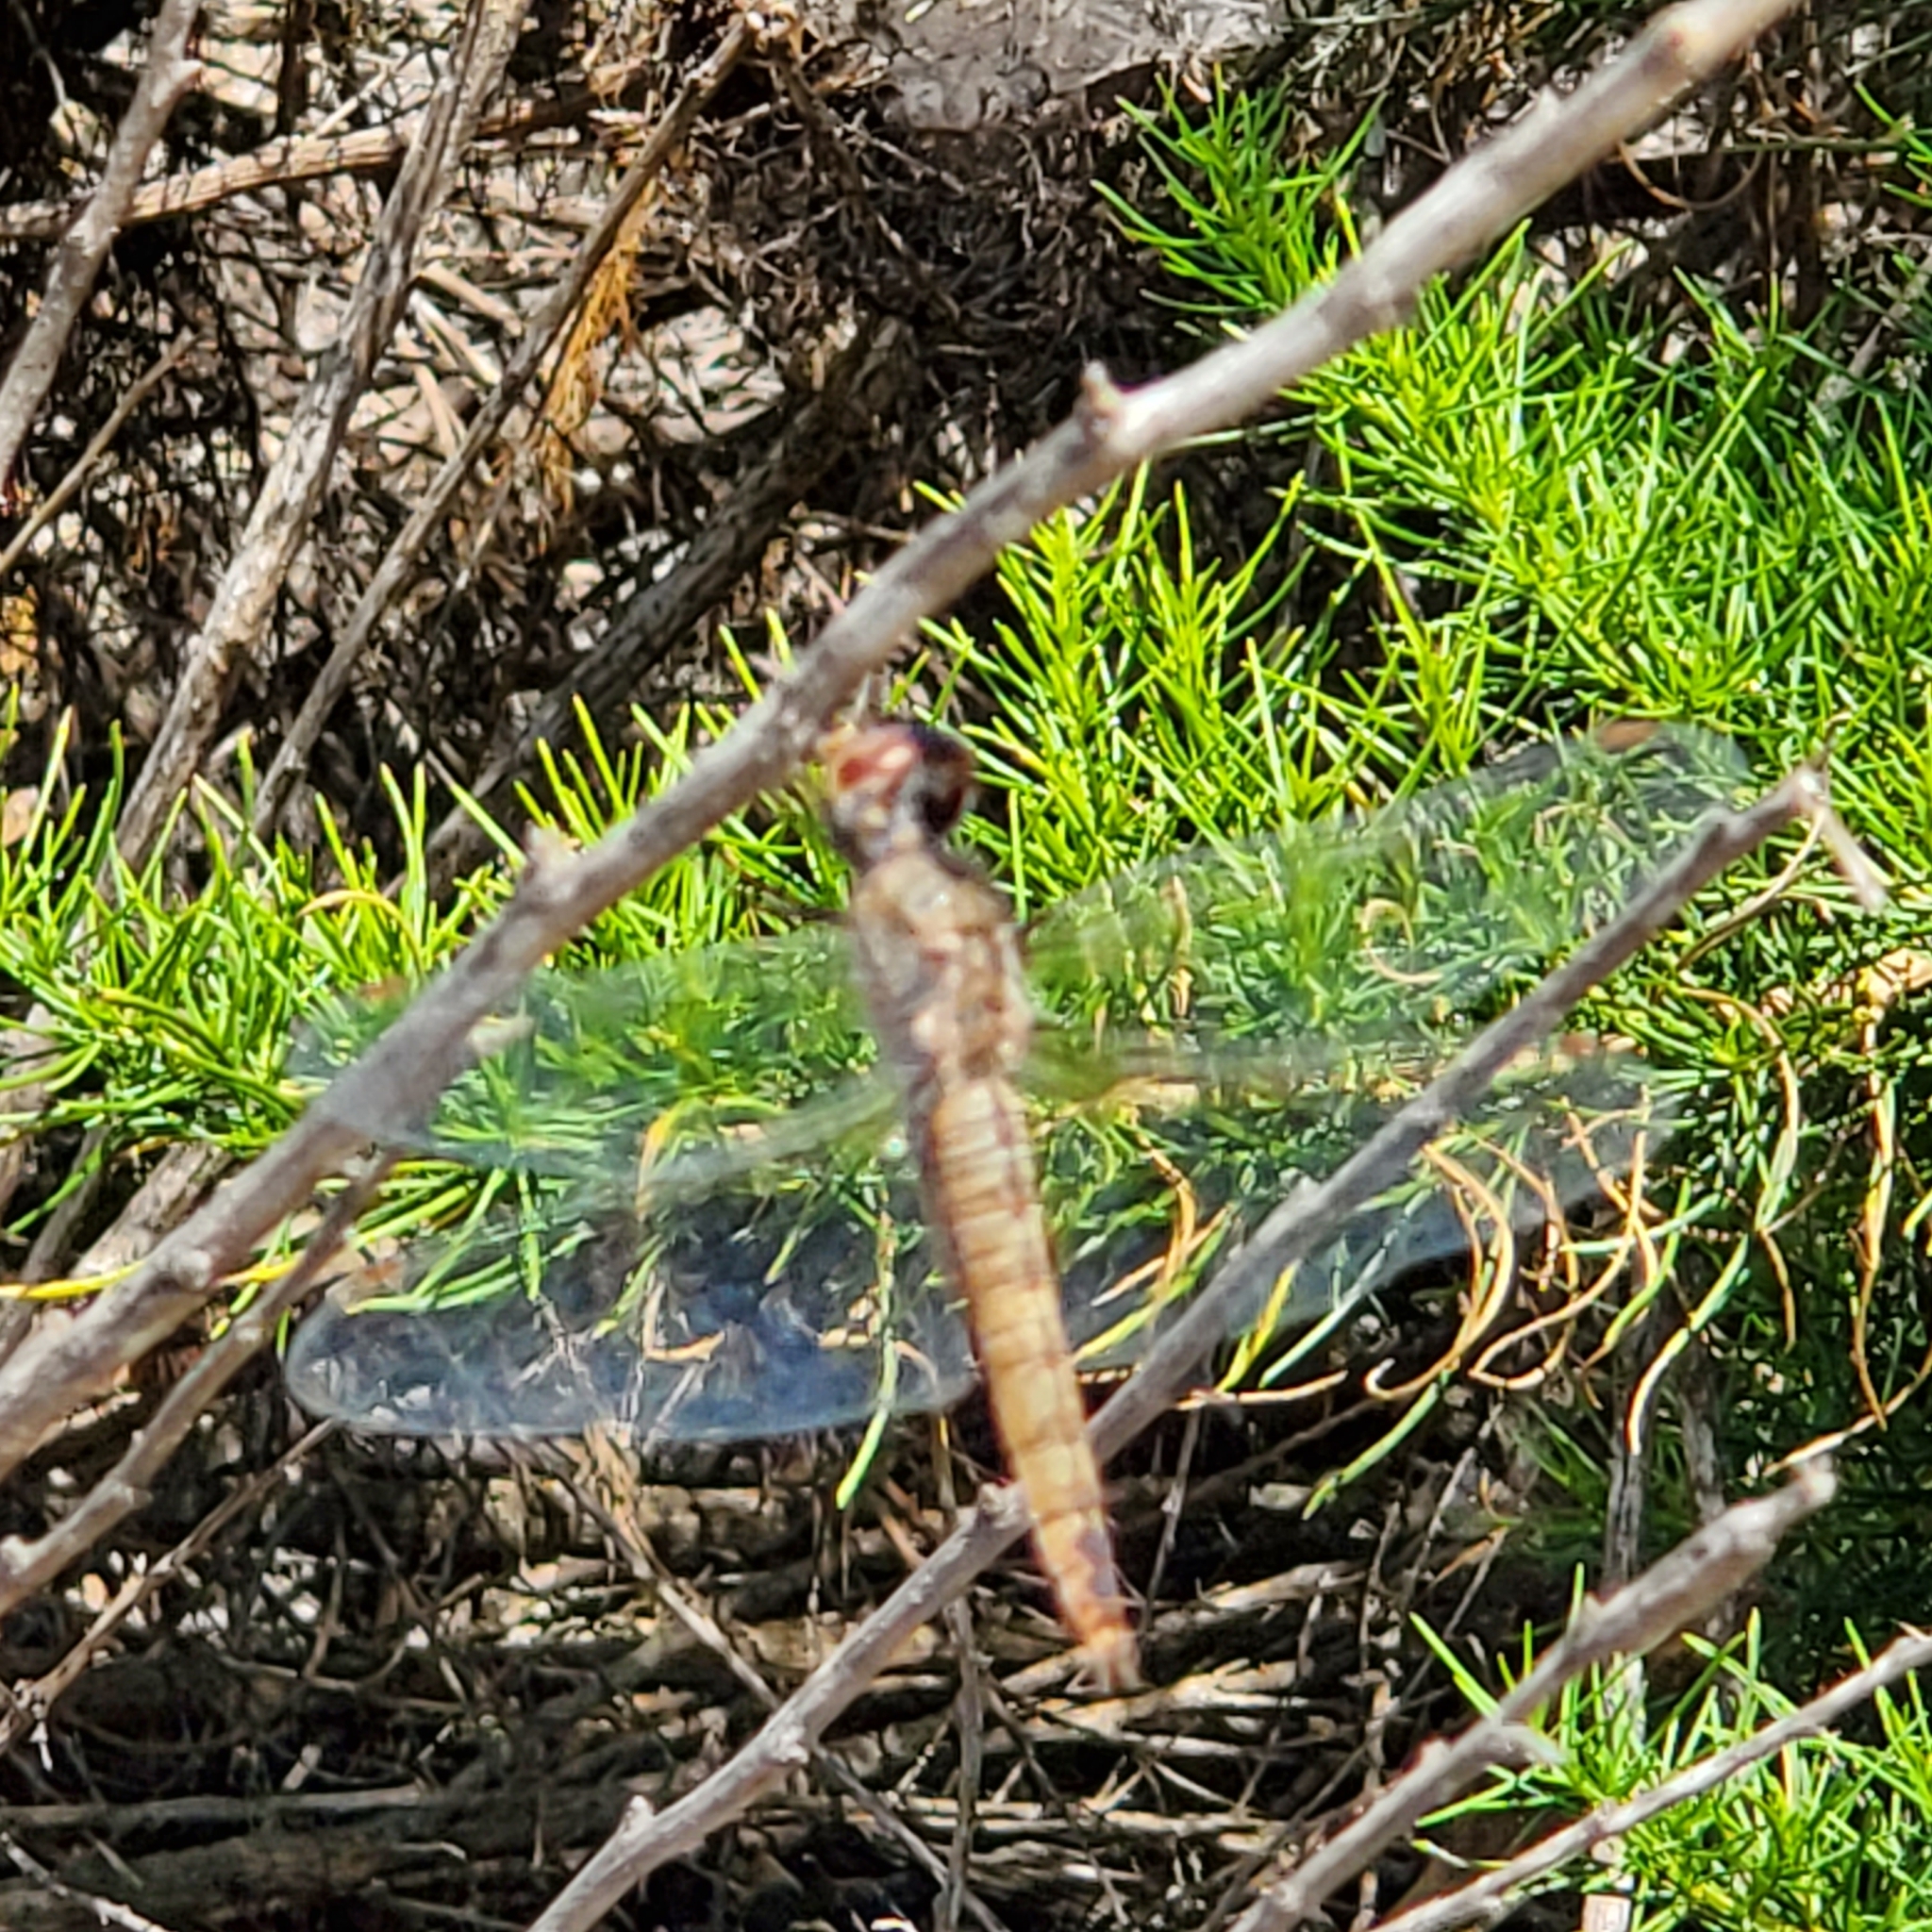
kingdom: Animalia
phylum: Arthropoda
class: Insecta
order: Odonata
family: Libellulidae
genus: Pantala
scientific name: Pantala flavescens
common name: Wandering glider
